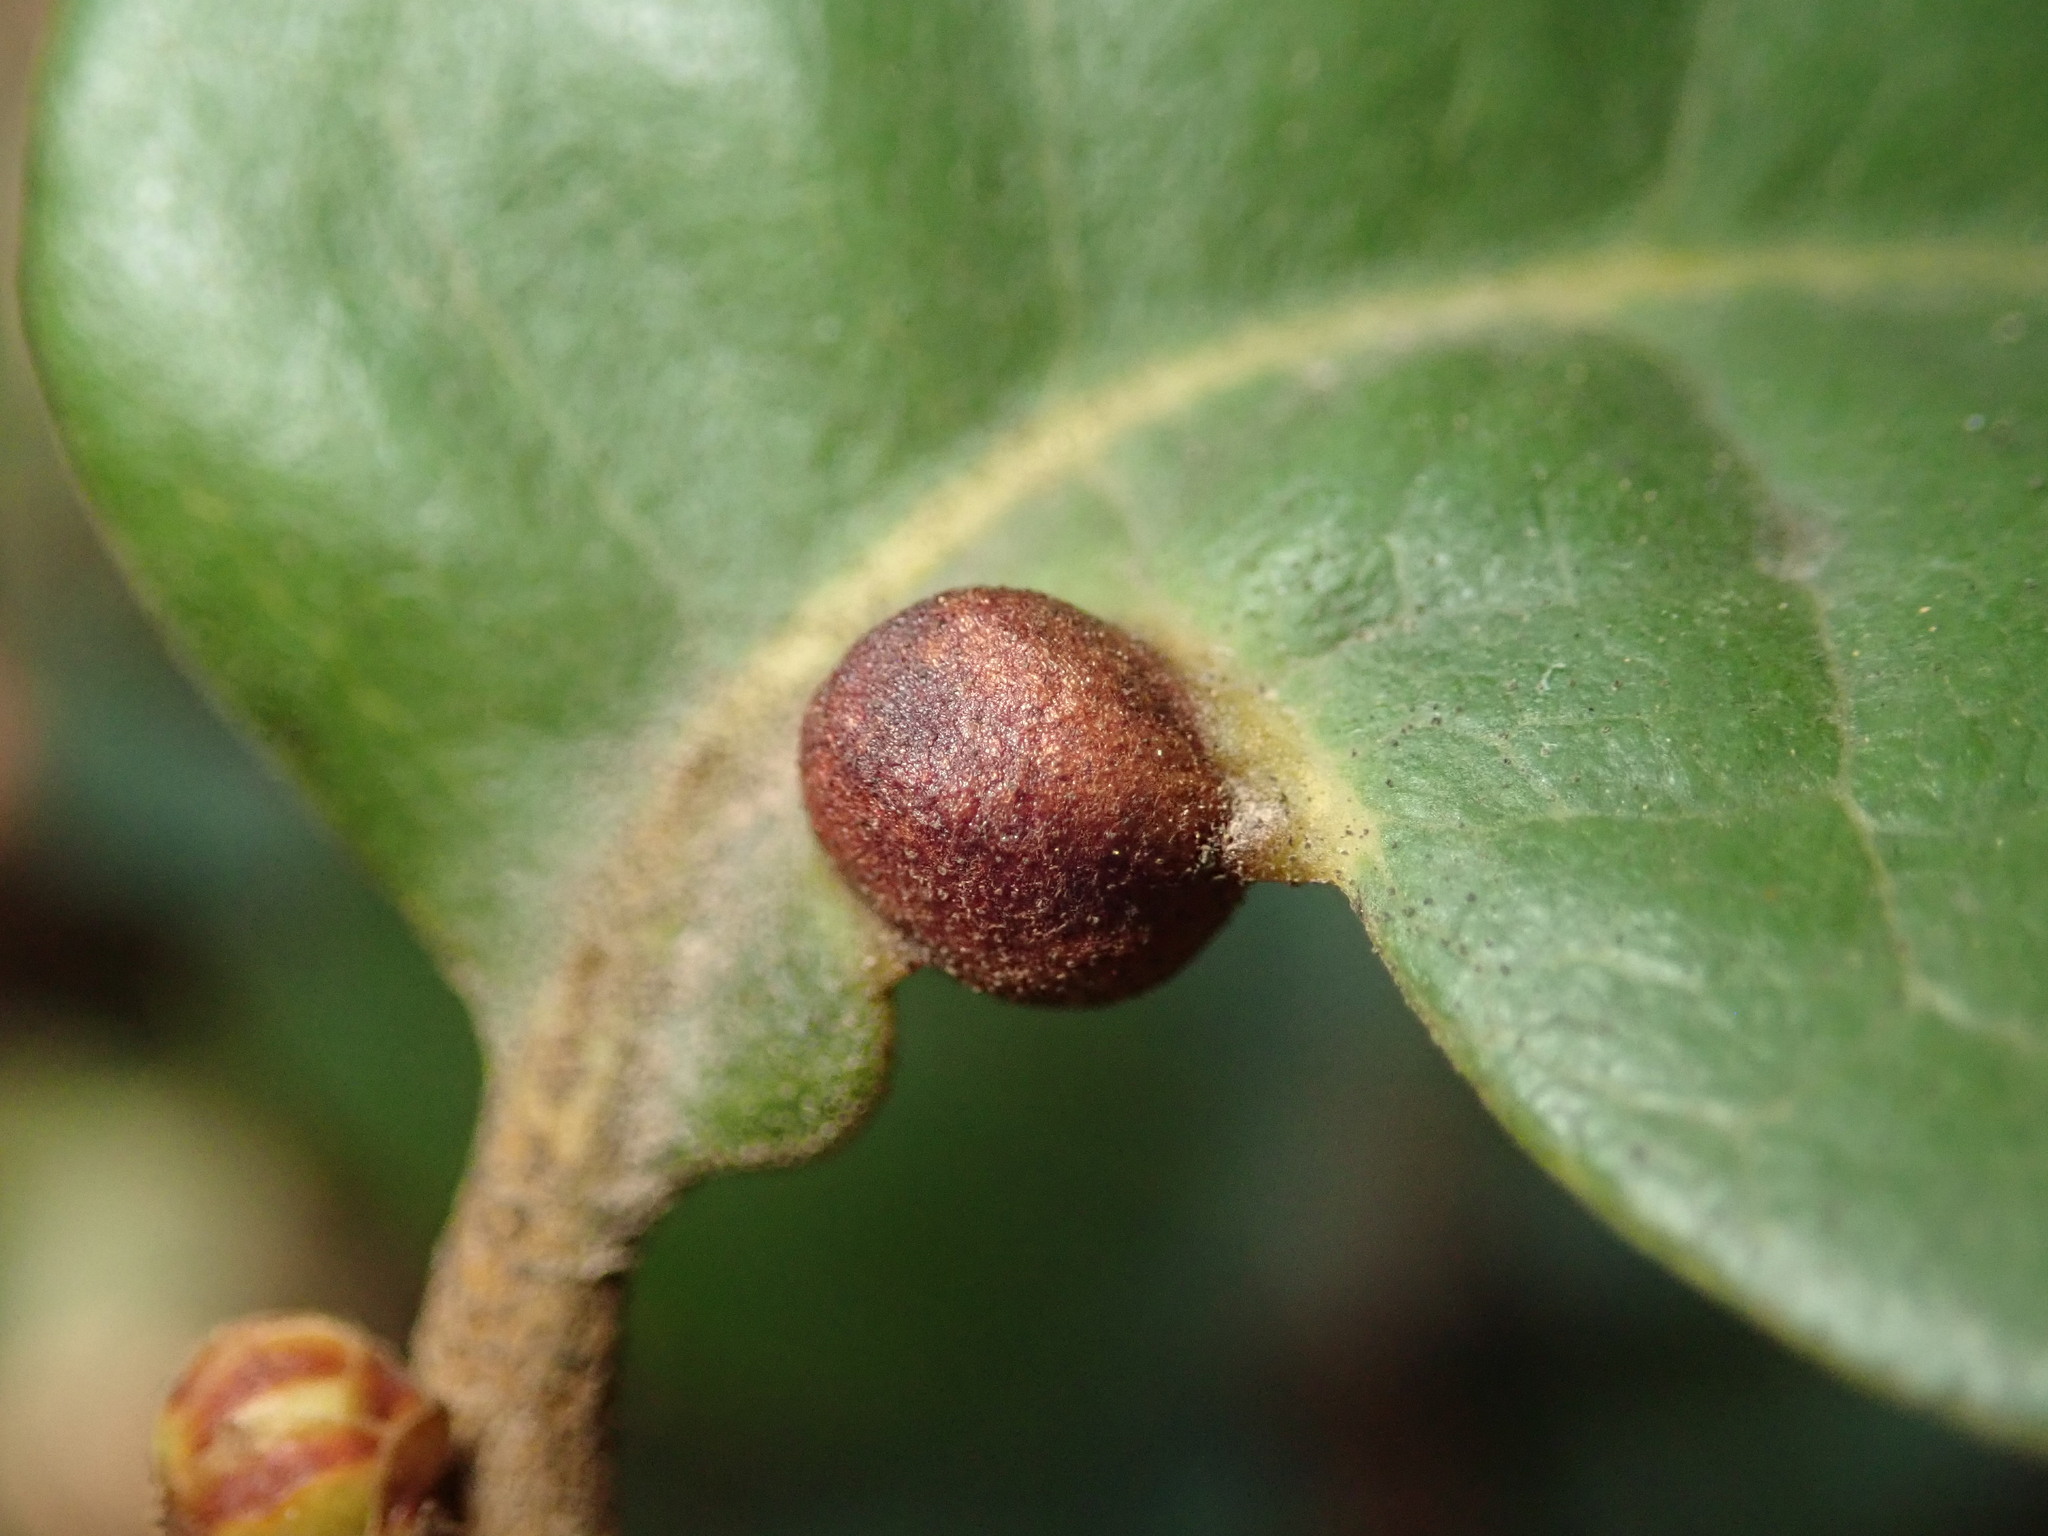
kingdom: Animalia
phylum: Arthropoda
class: Insecta
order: Hymenoptera
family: Cynipidae
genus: Dryocosmus
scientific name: Dryocosmus juliae
